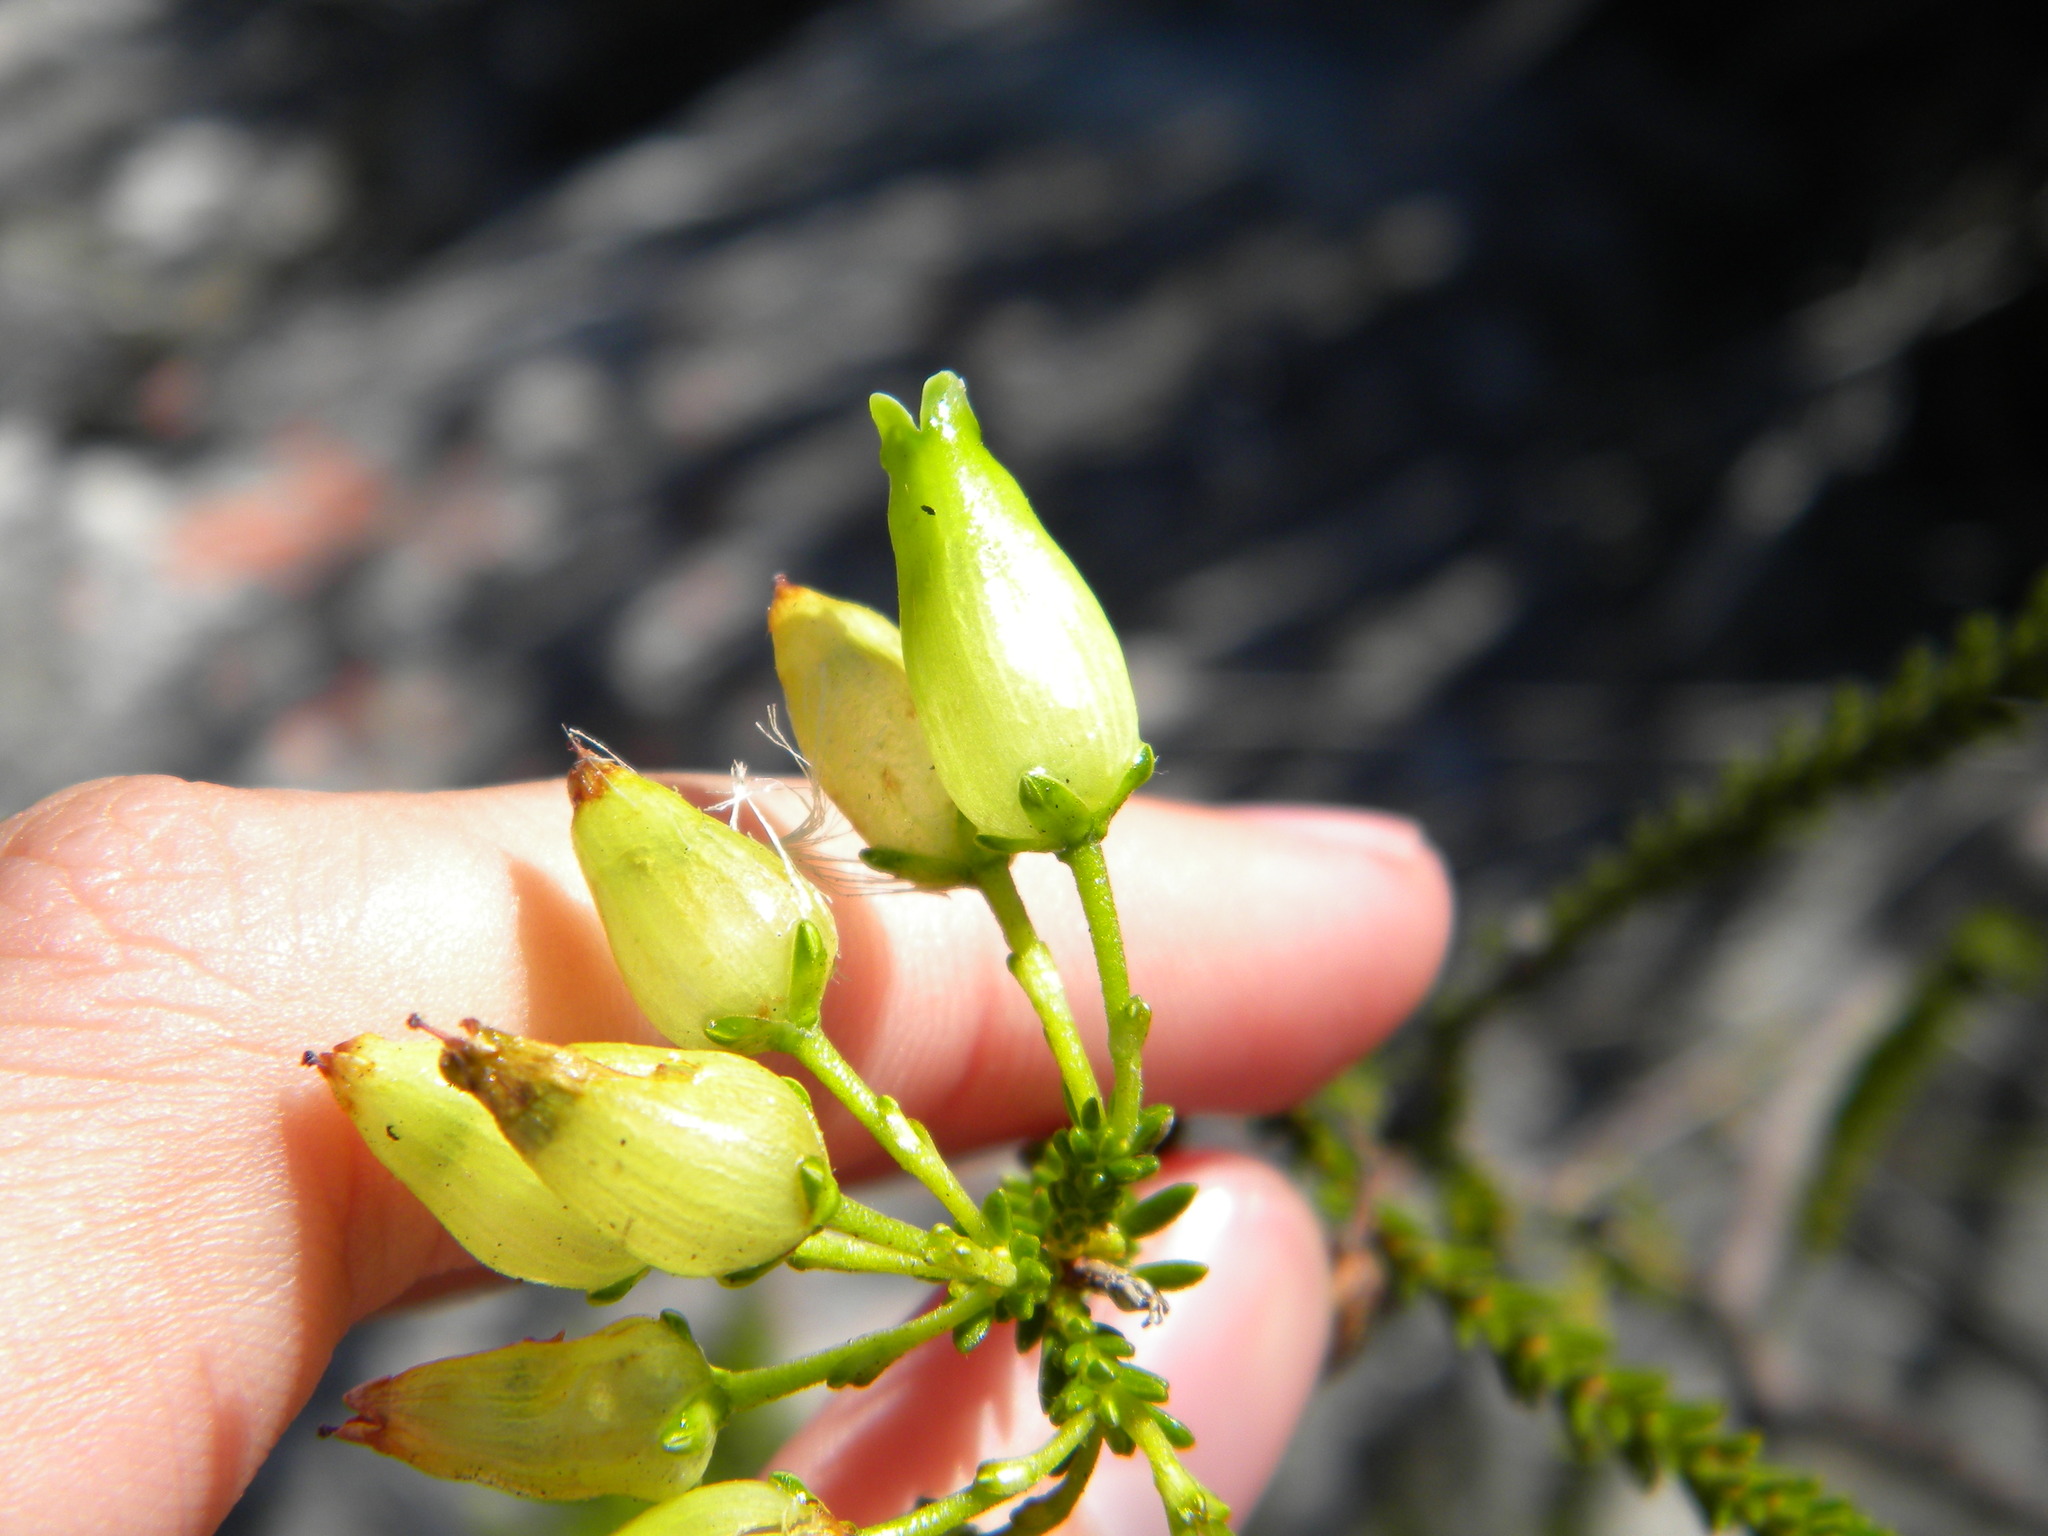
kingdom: Plantae
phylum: Tracheophyta
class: Magnoliopsida
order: Ericales
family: Ericaceae
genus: Erica
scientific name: Erica urna-viridis
